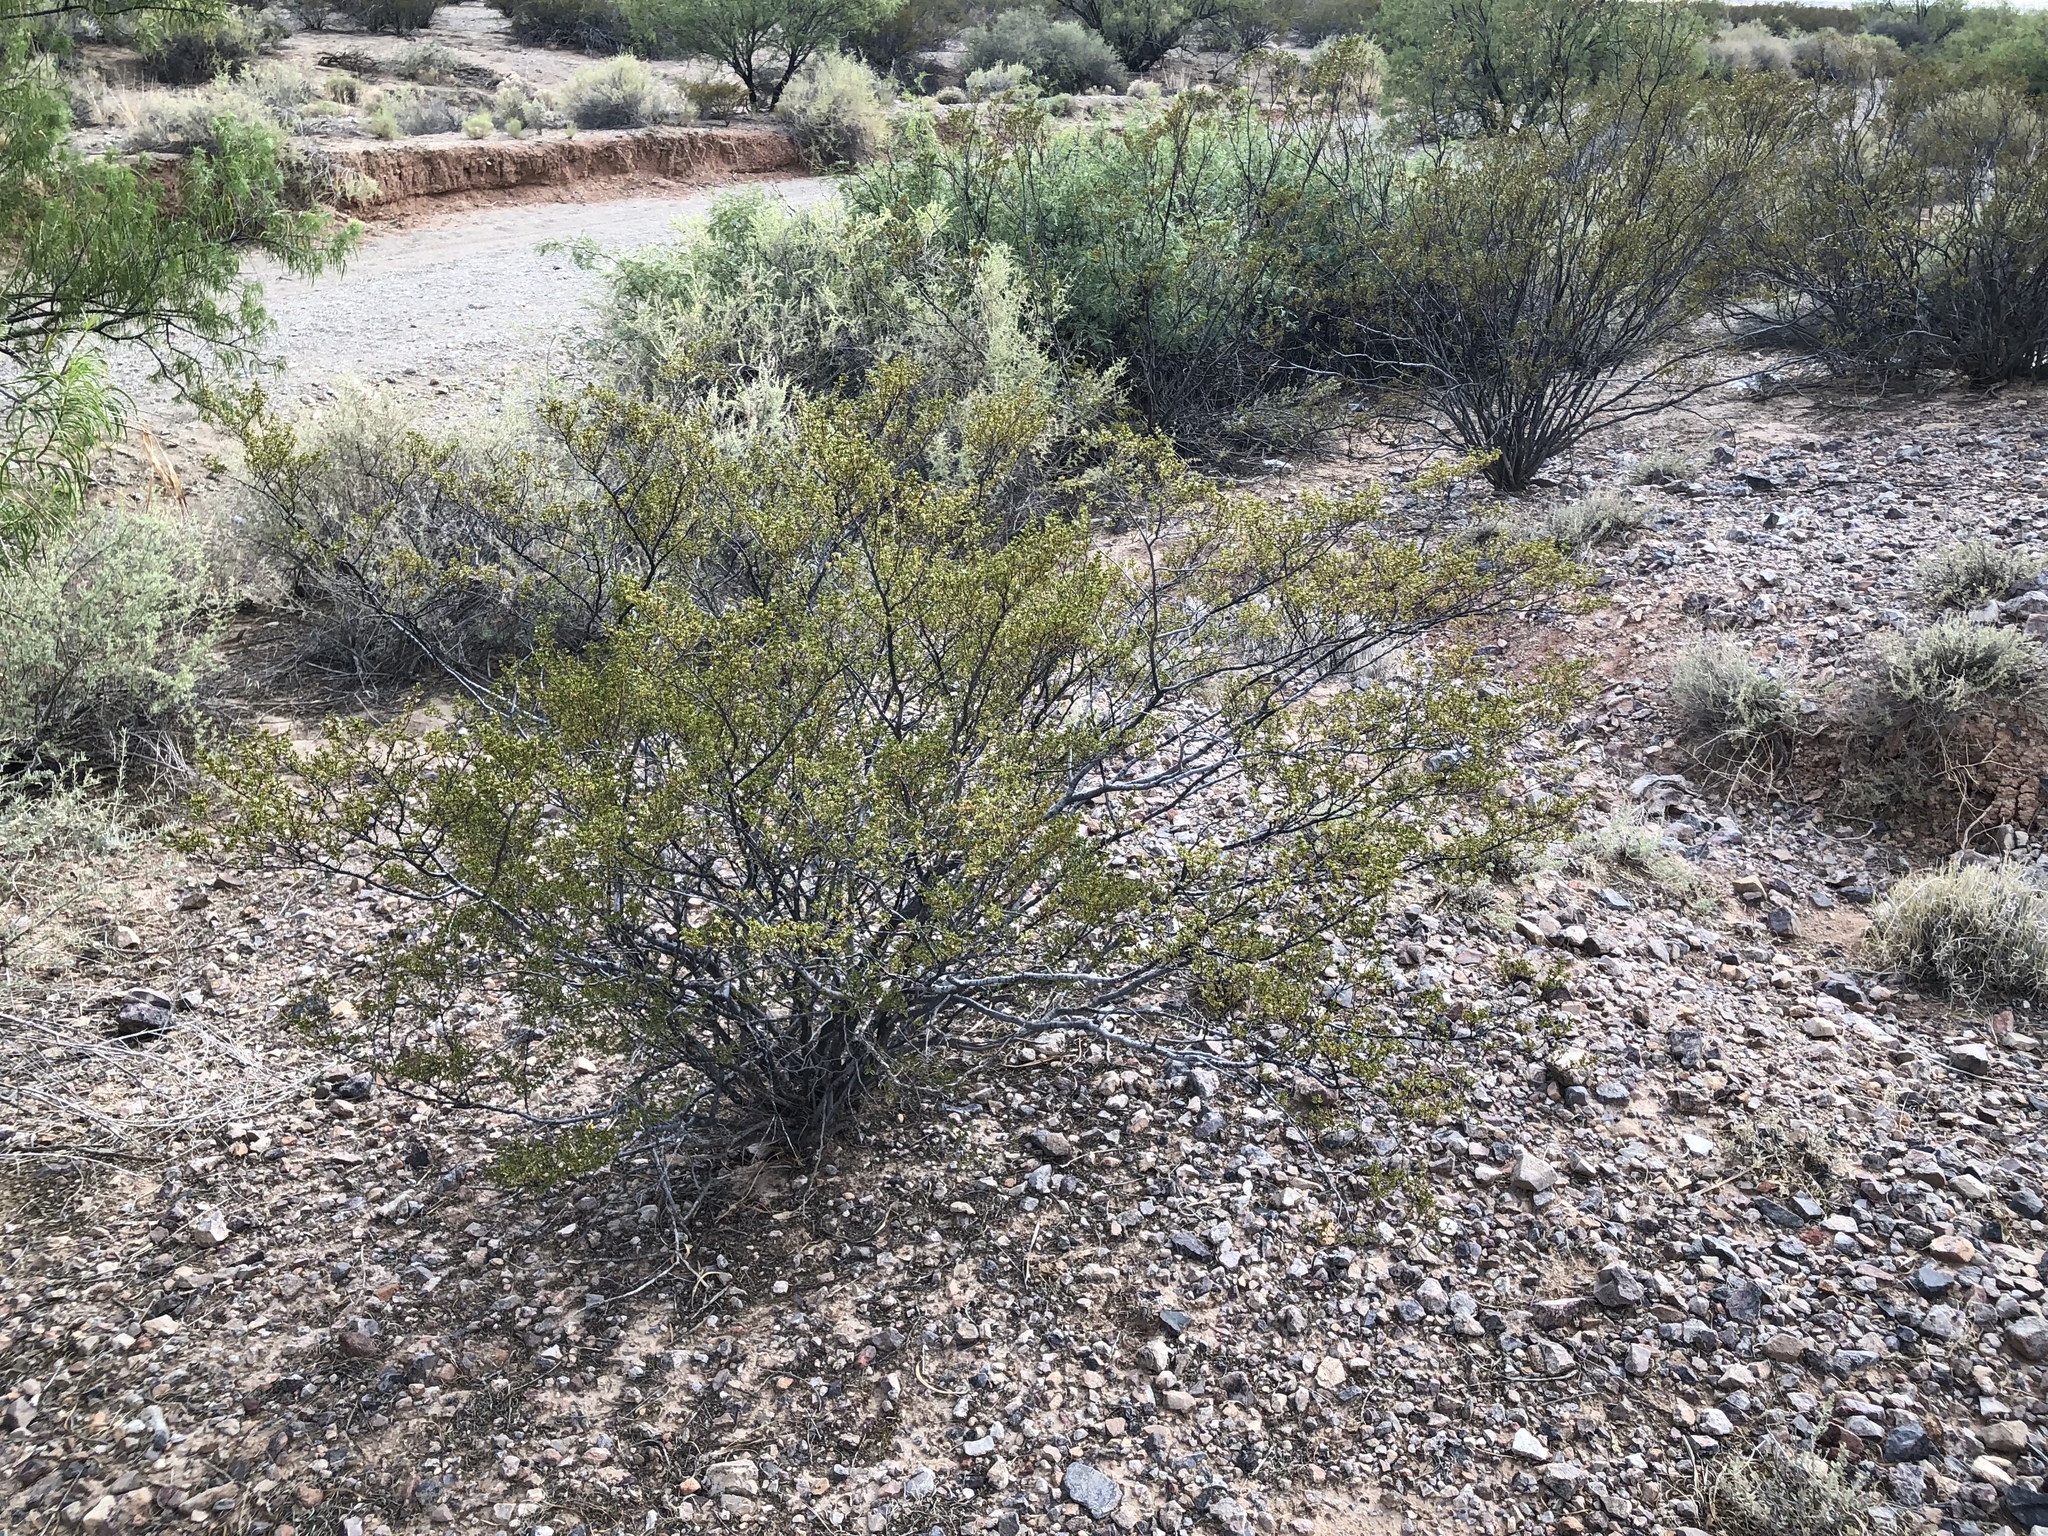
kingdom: Plantae
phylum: Tracheophyta
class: Magnoliopsida
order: Zygophyllales
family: Zygophyllaceae
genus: Larrea
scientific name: Larrea tridentata
